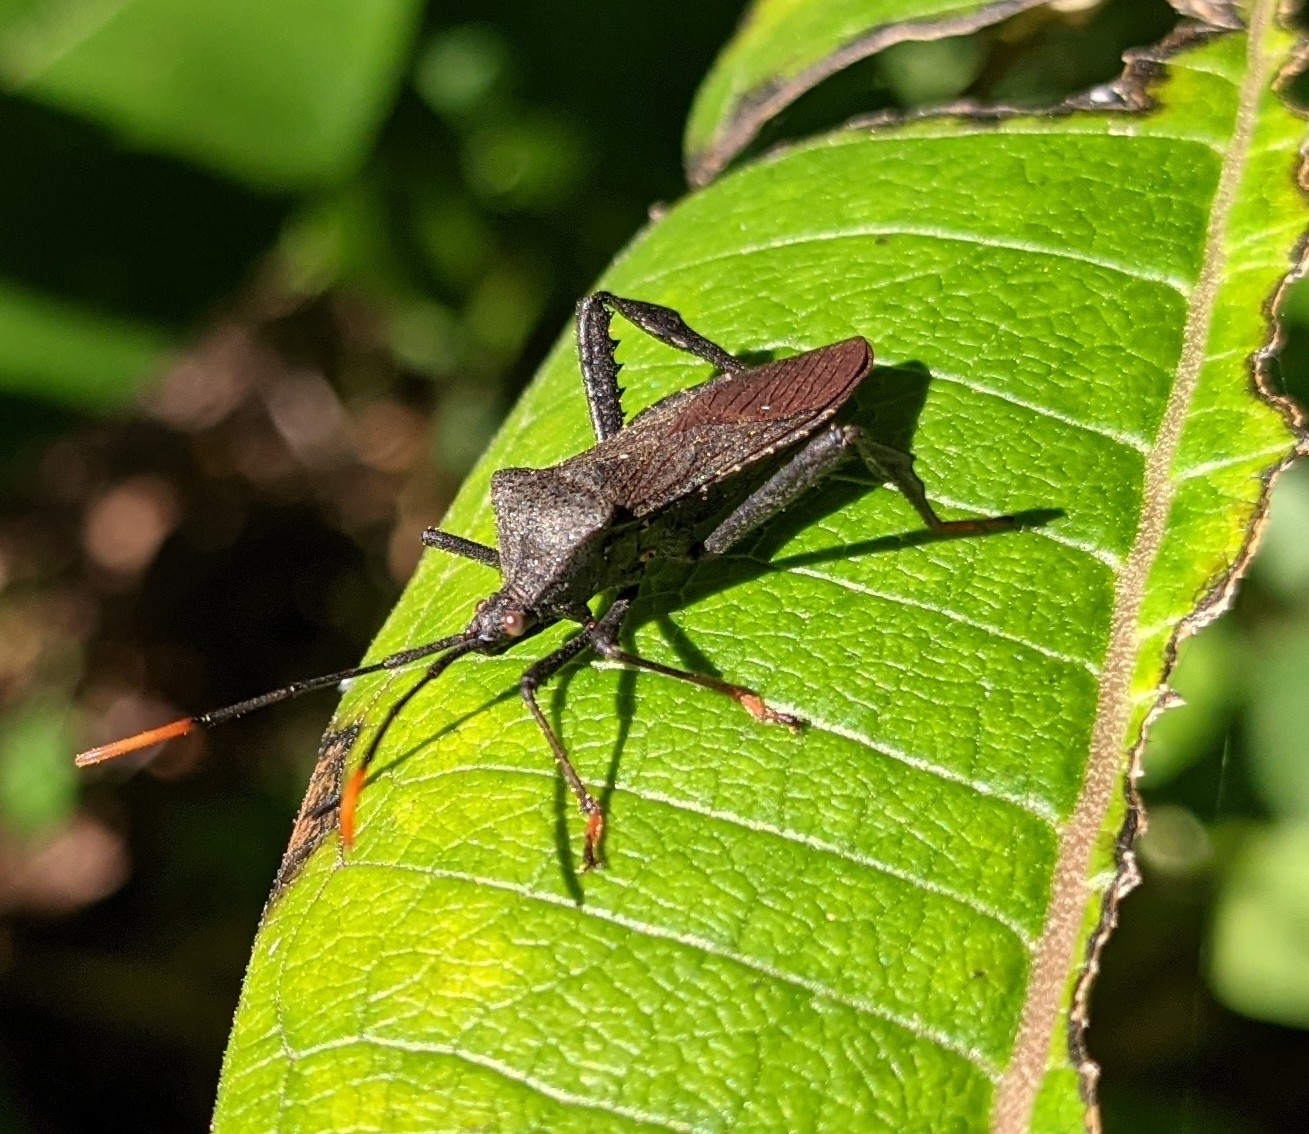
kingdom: Animalia
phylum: Arthropoda
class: Insecta
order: Hemiptera
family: Coreidae
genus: Acanthocephala
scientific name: Acanthocephala terminalis
